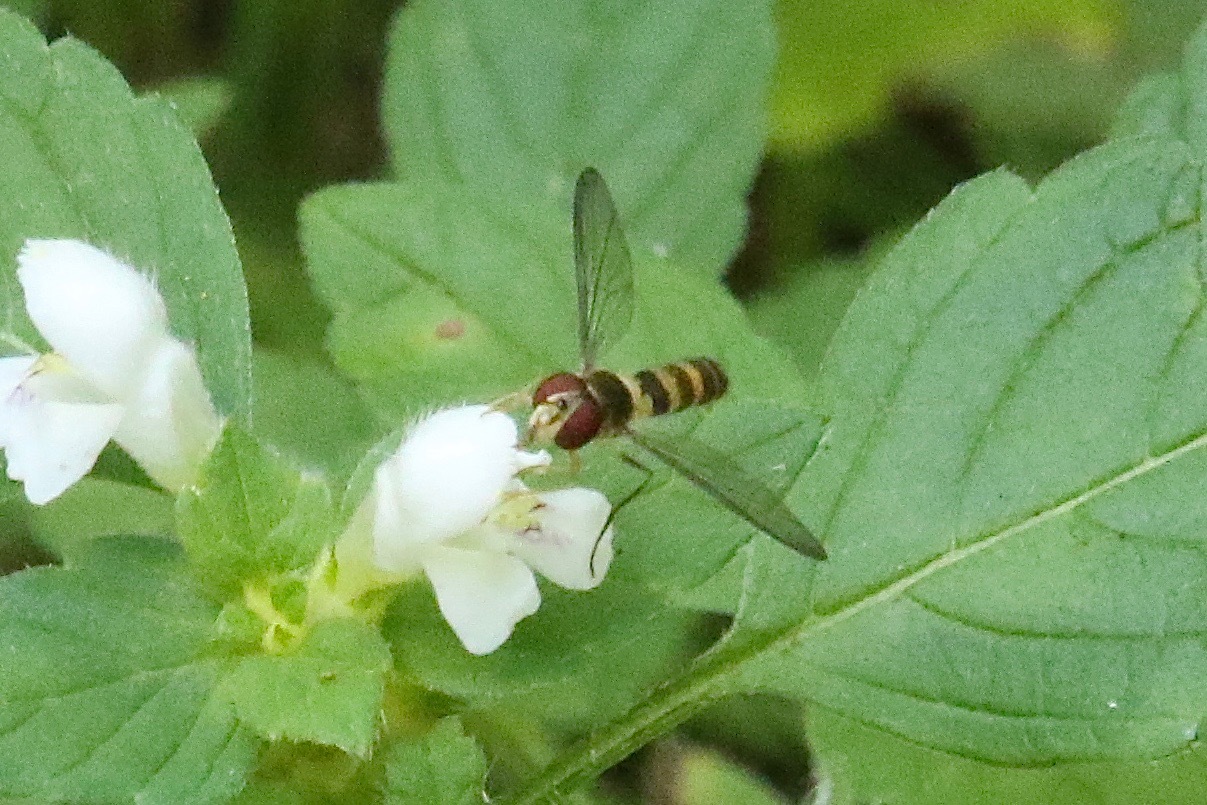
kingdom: Animalia
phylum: Arthropoda
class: Insecta
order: Diptera
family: Syrphidae
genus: Meliscaeva
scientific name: Meliscaeva cinctella
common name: American thintail fly
